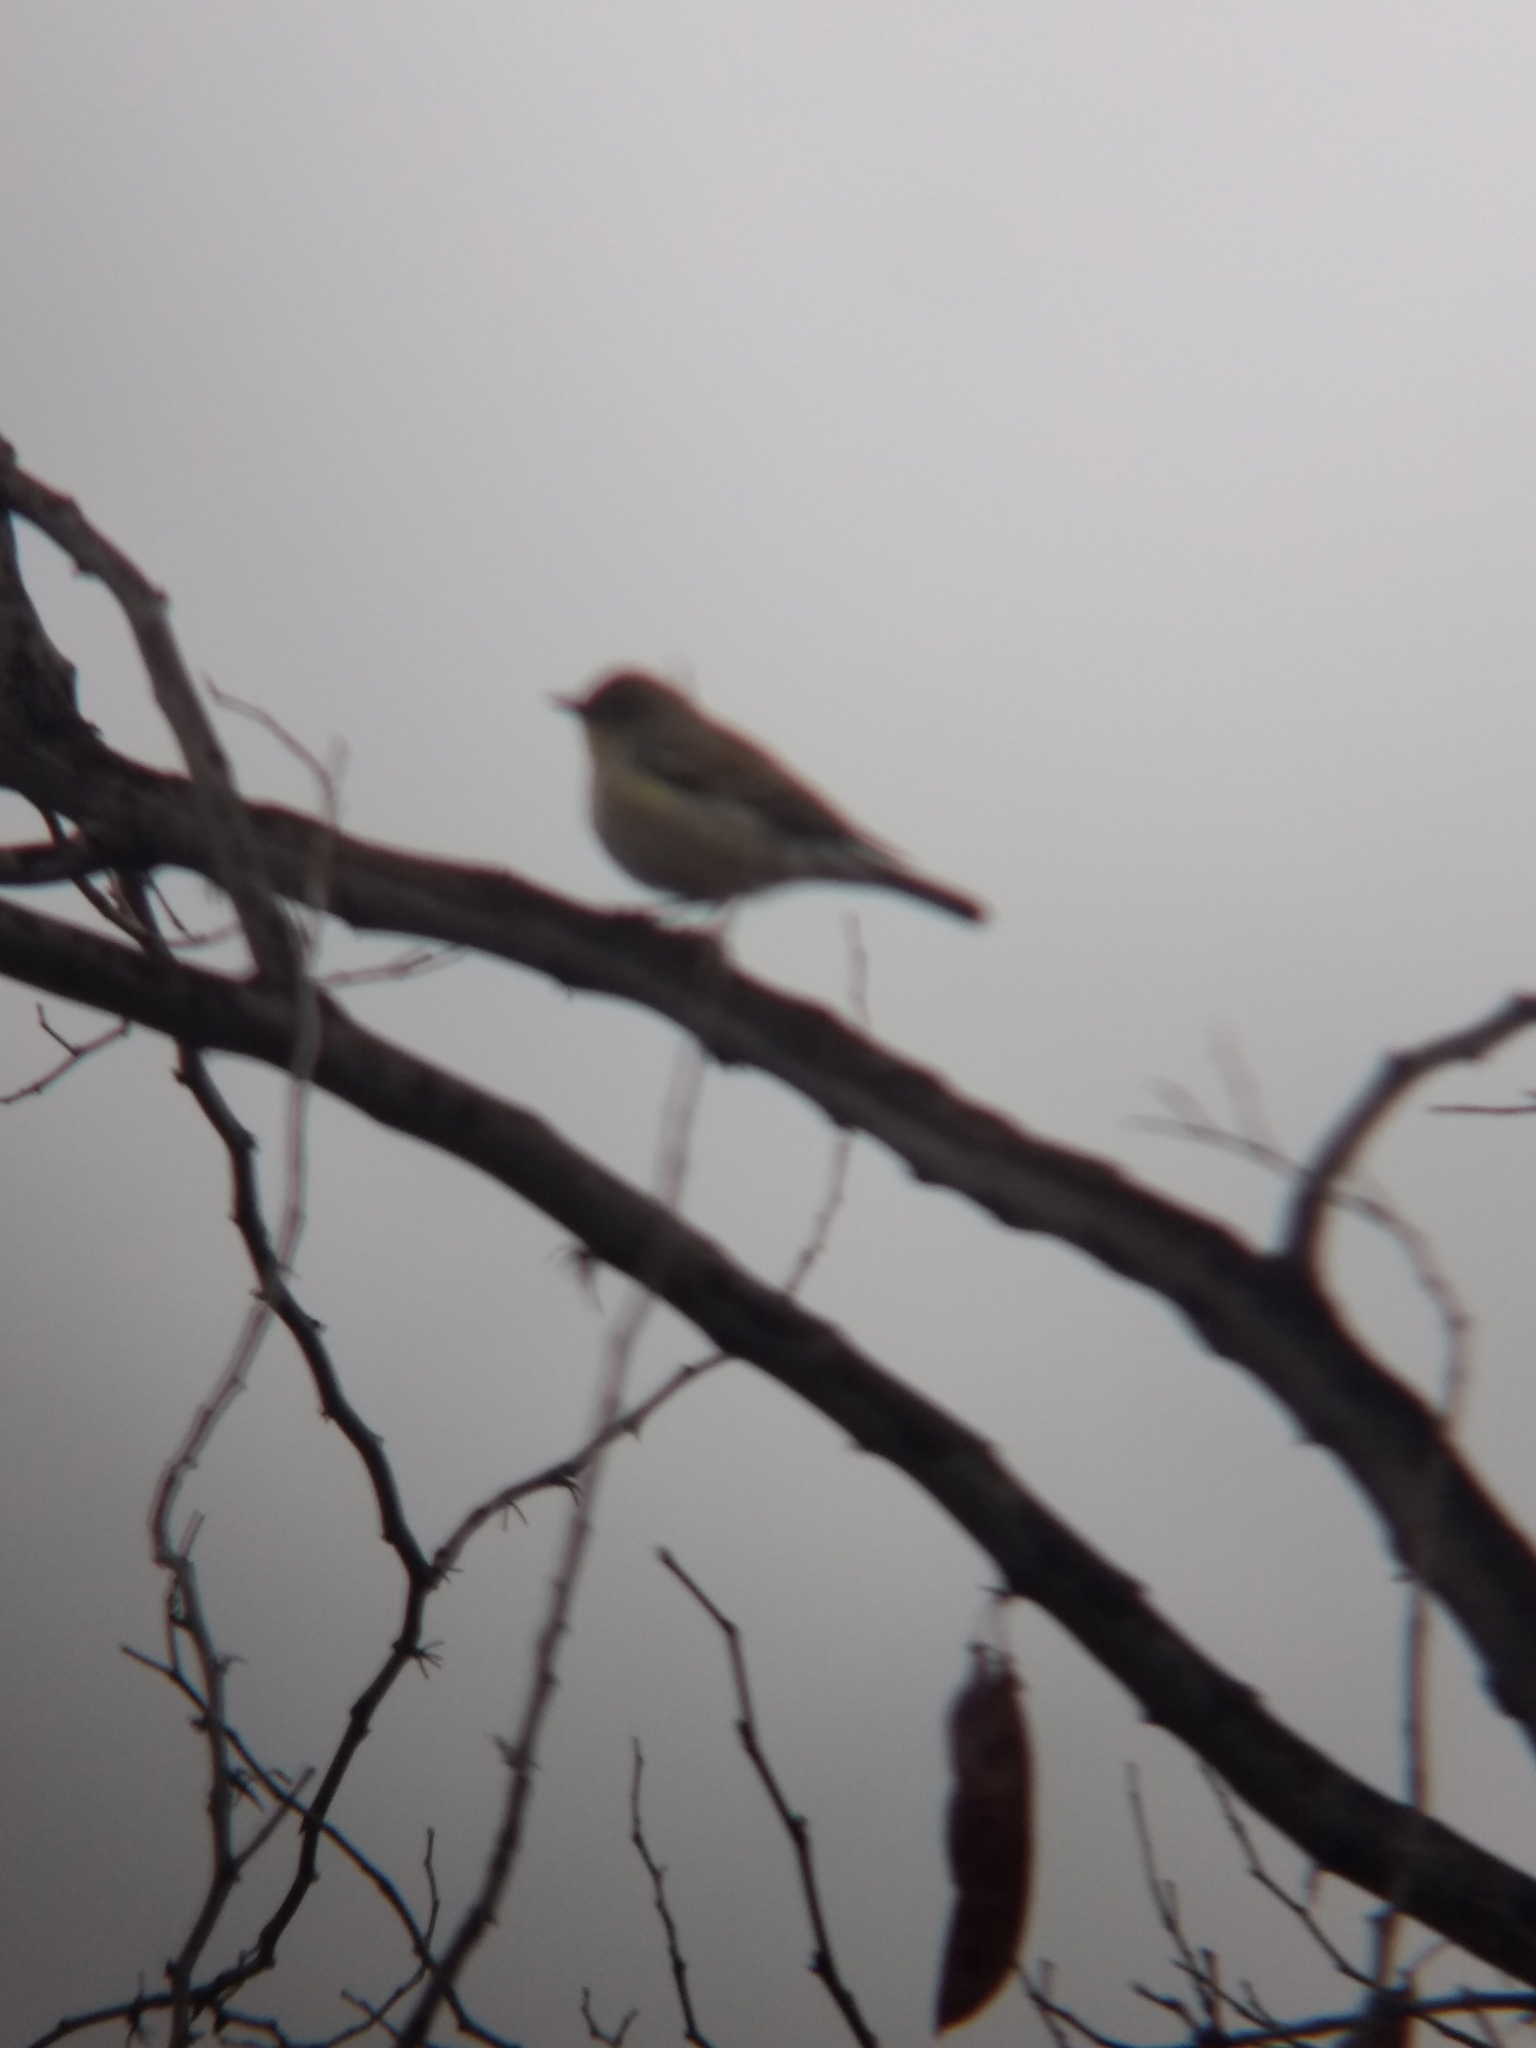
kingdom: Animalia
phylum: Chordata
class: Aves
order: Passeriformes
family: Parulidae
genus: Setophaga
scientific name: Setophaga coronata
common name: Myrtle warbler
